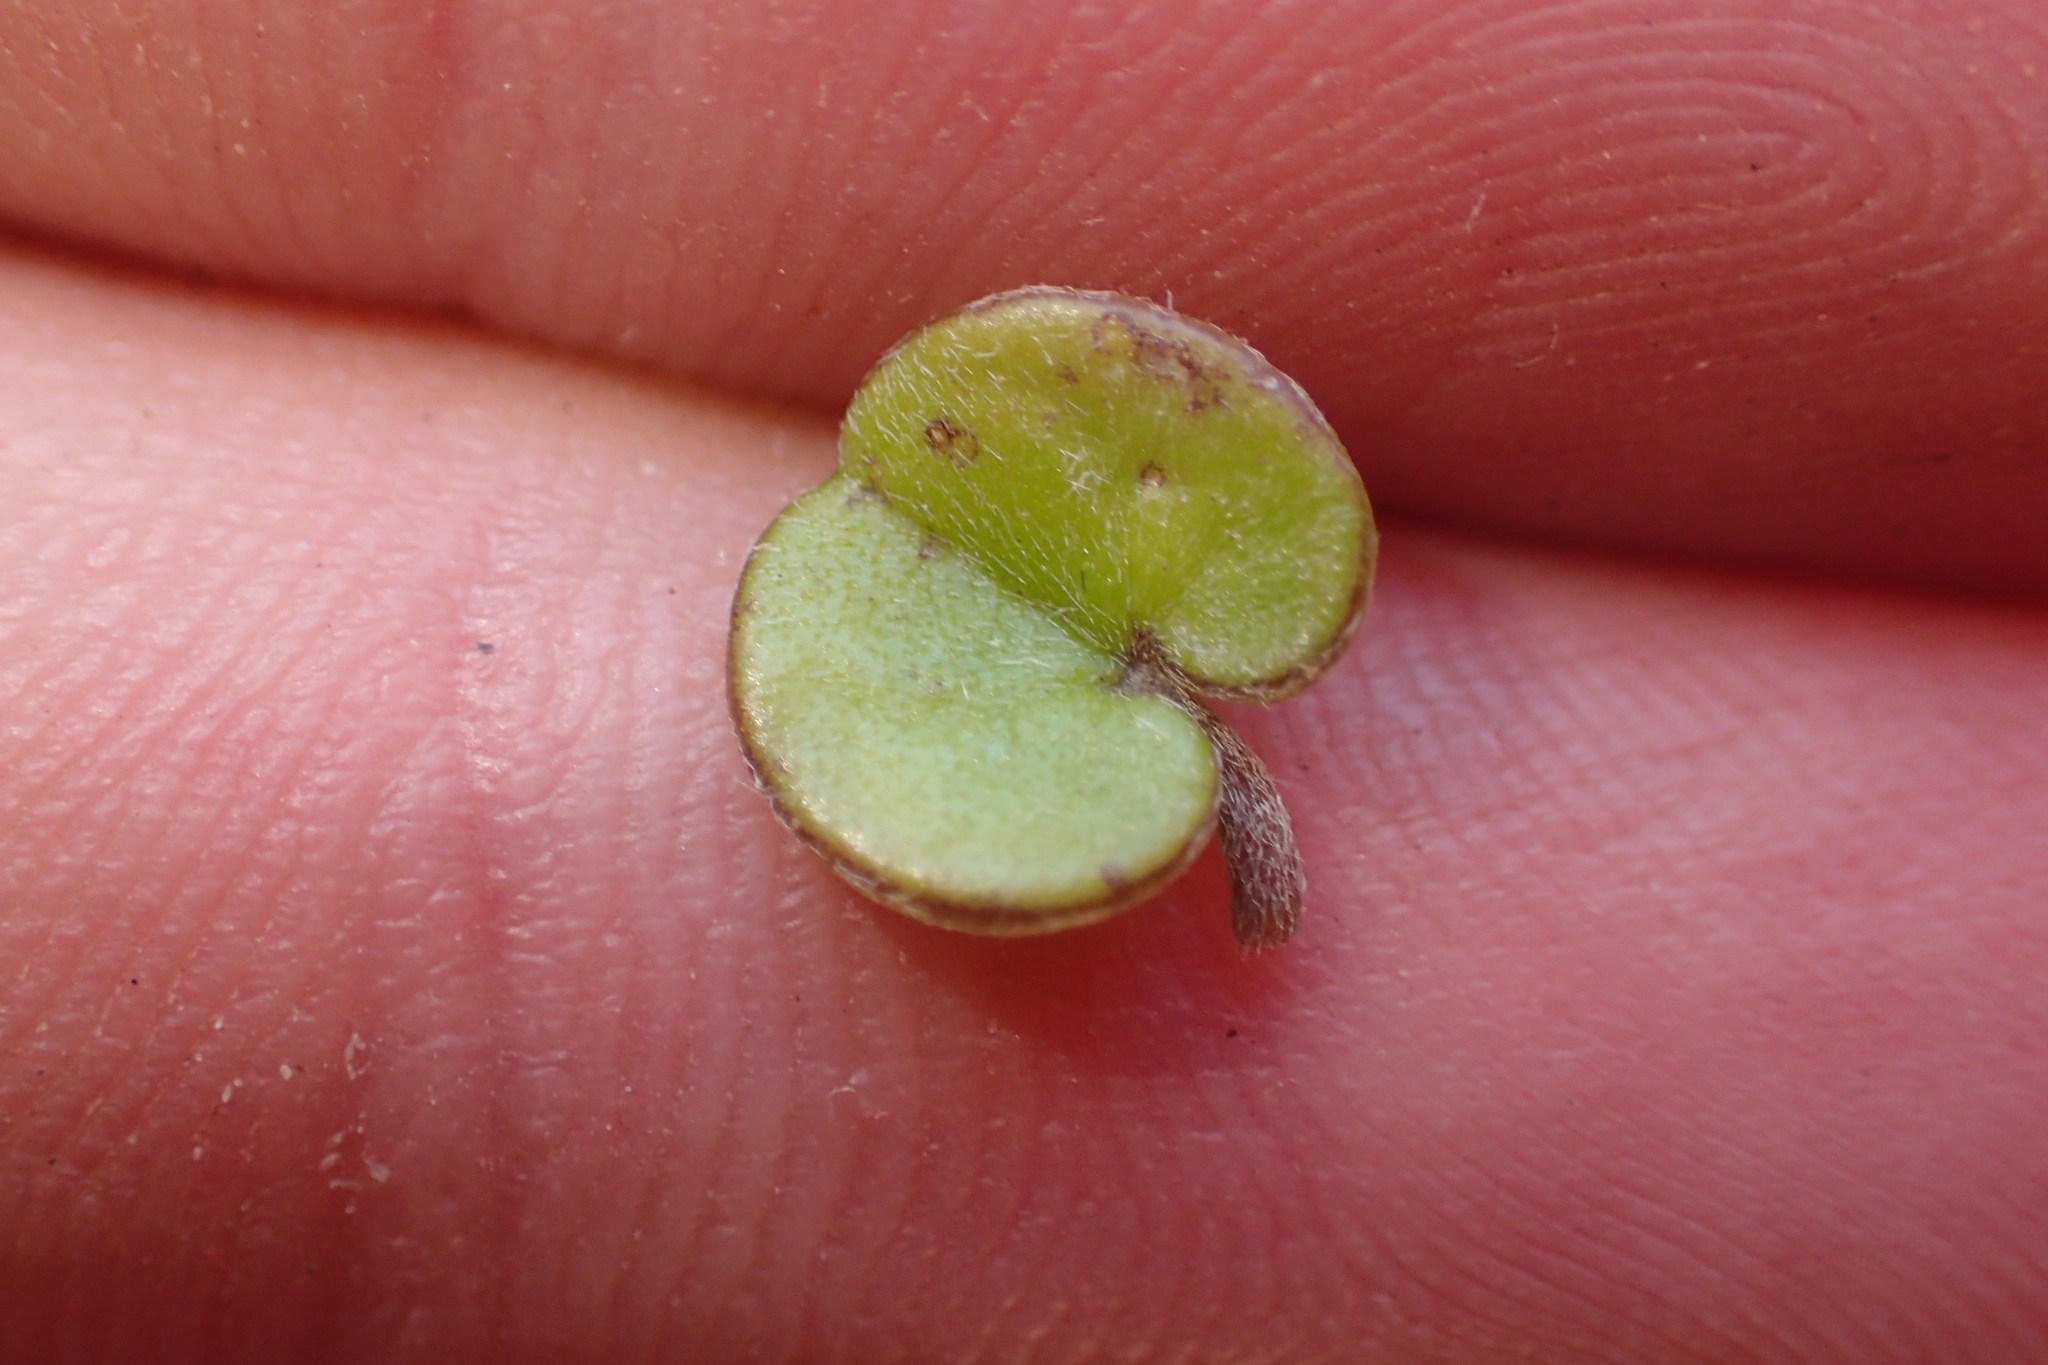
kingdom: Plantae
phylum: Tracheophyta
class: Magnoliopsida
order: Solanales
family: Convolvulaceae
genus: Dichondra
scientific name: Dichondra brevifolia
